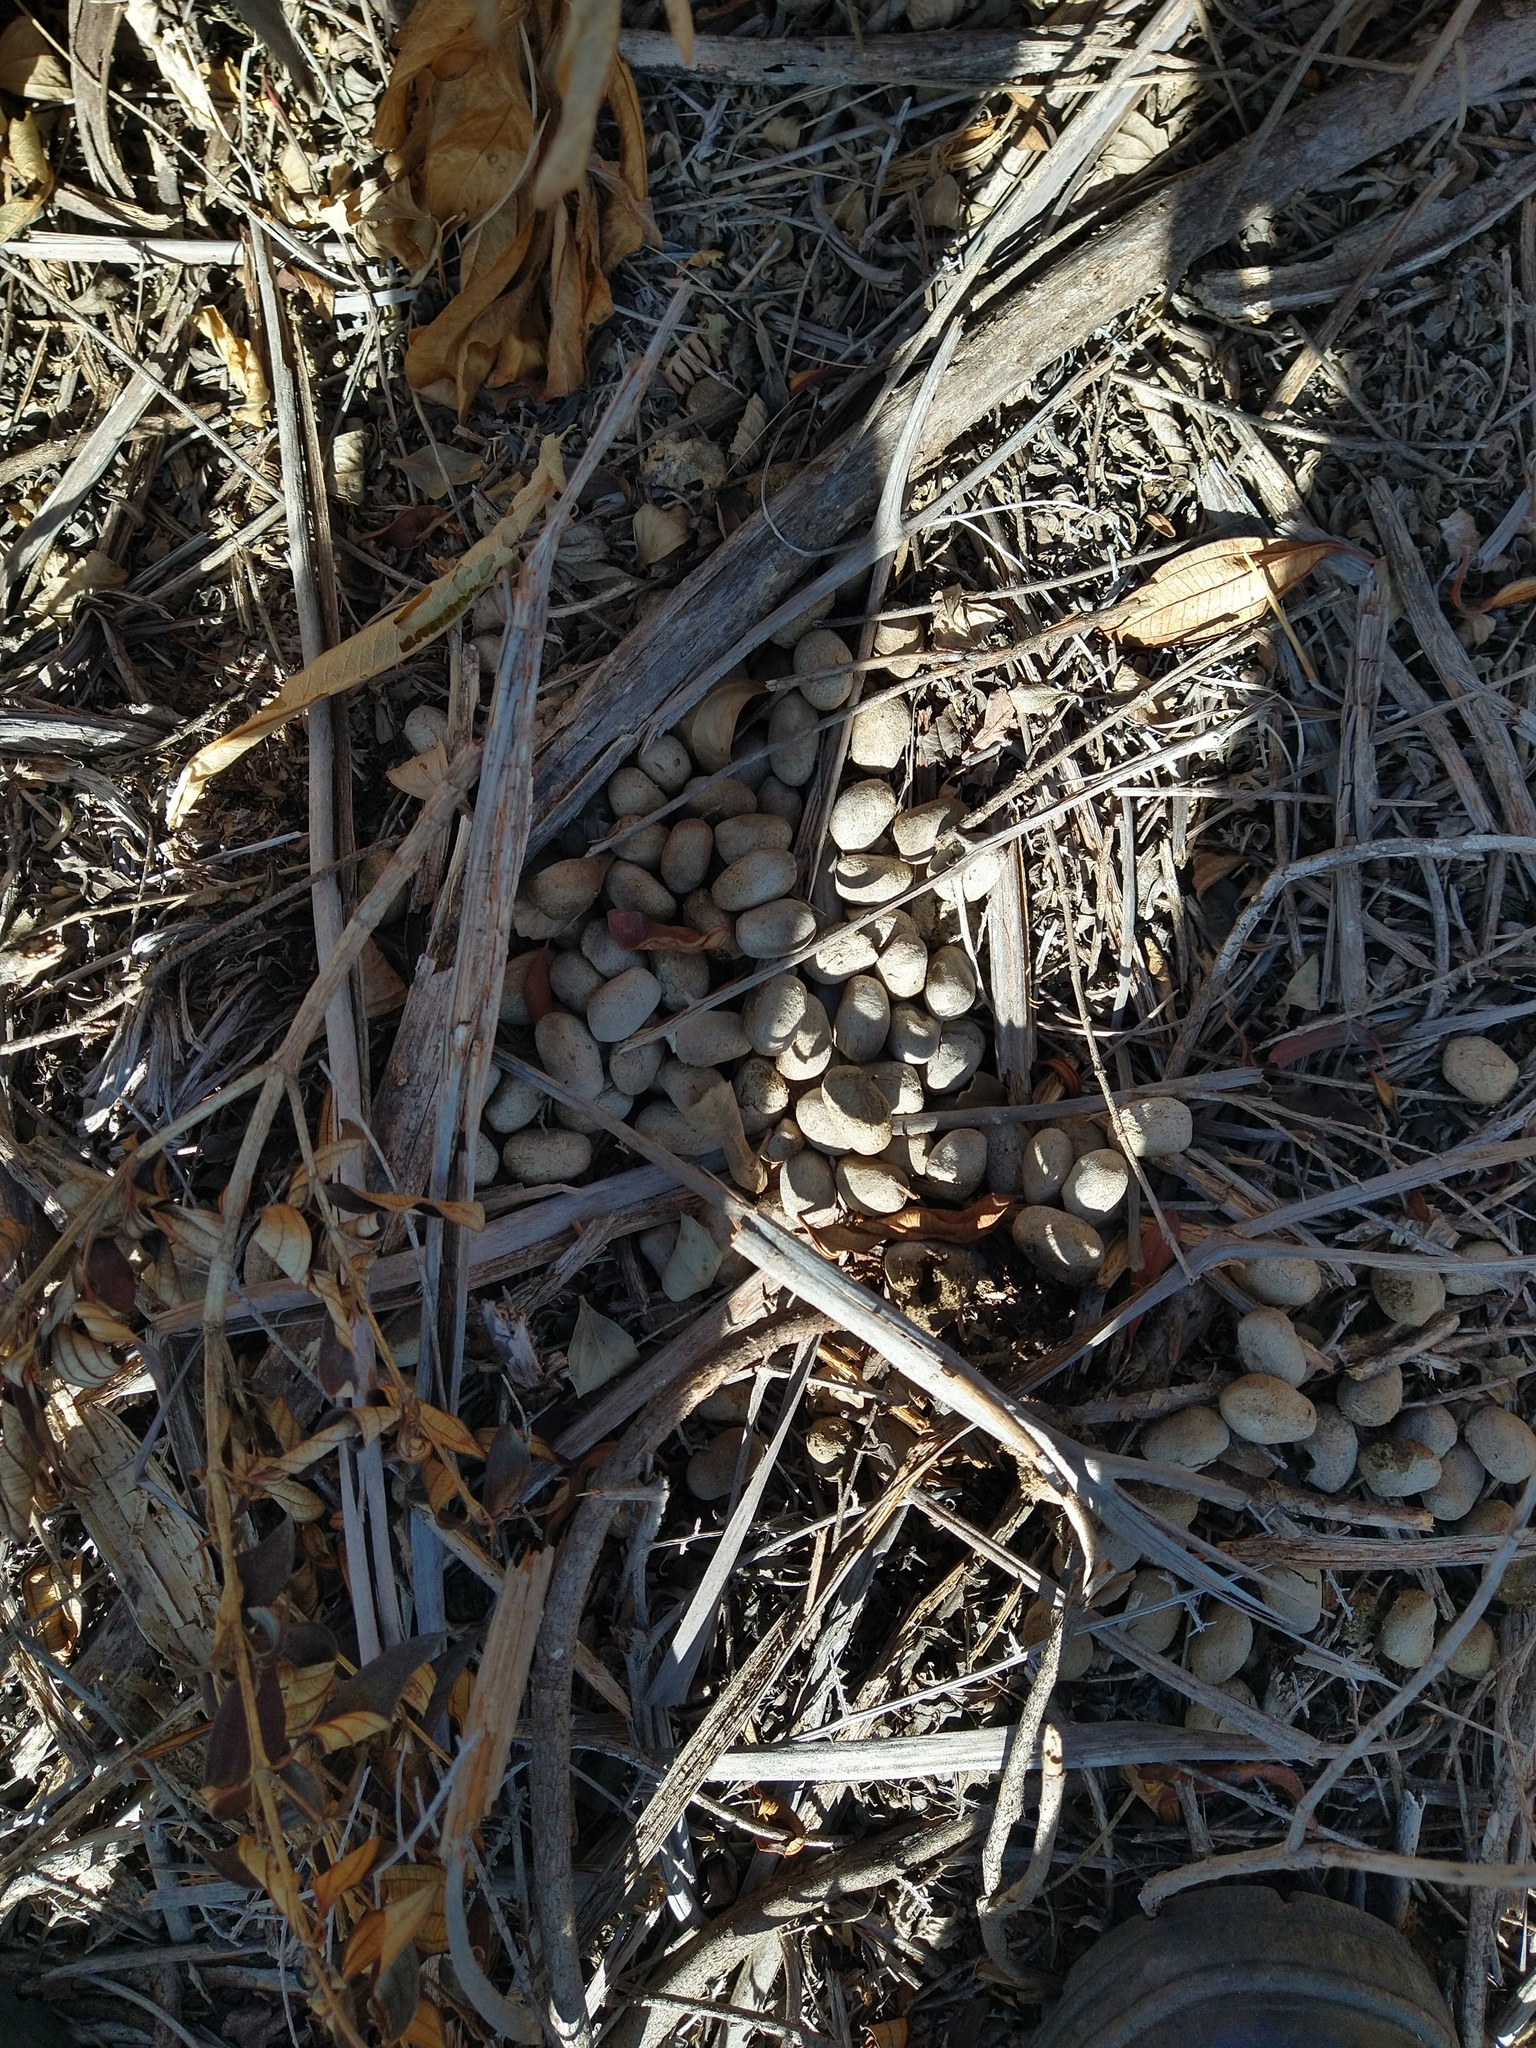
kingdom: Animalia
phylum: Chordata
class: Mammalia
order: Rodentia
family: Caviidae
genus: Hydrochoerus
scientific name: Hydrochoerus hydrochaeris
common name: Capybara
